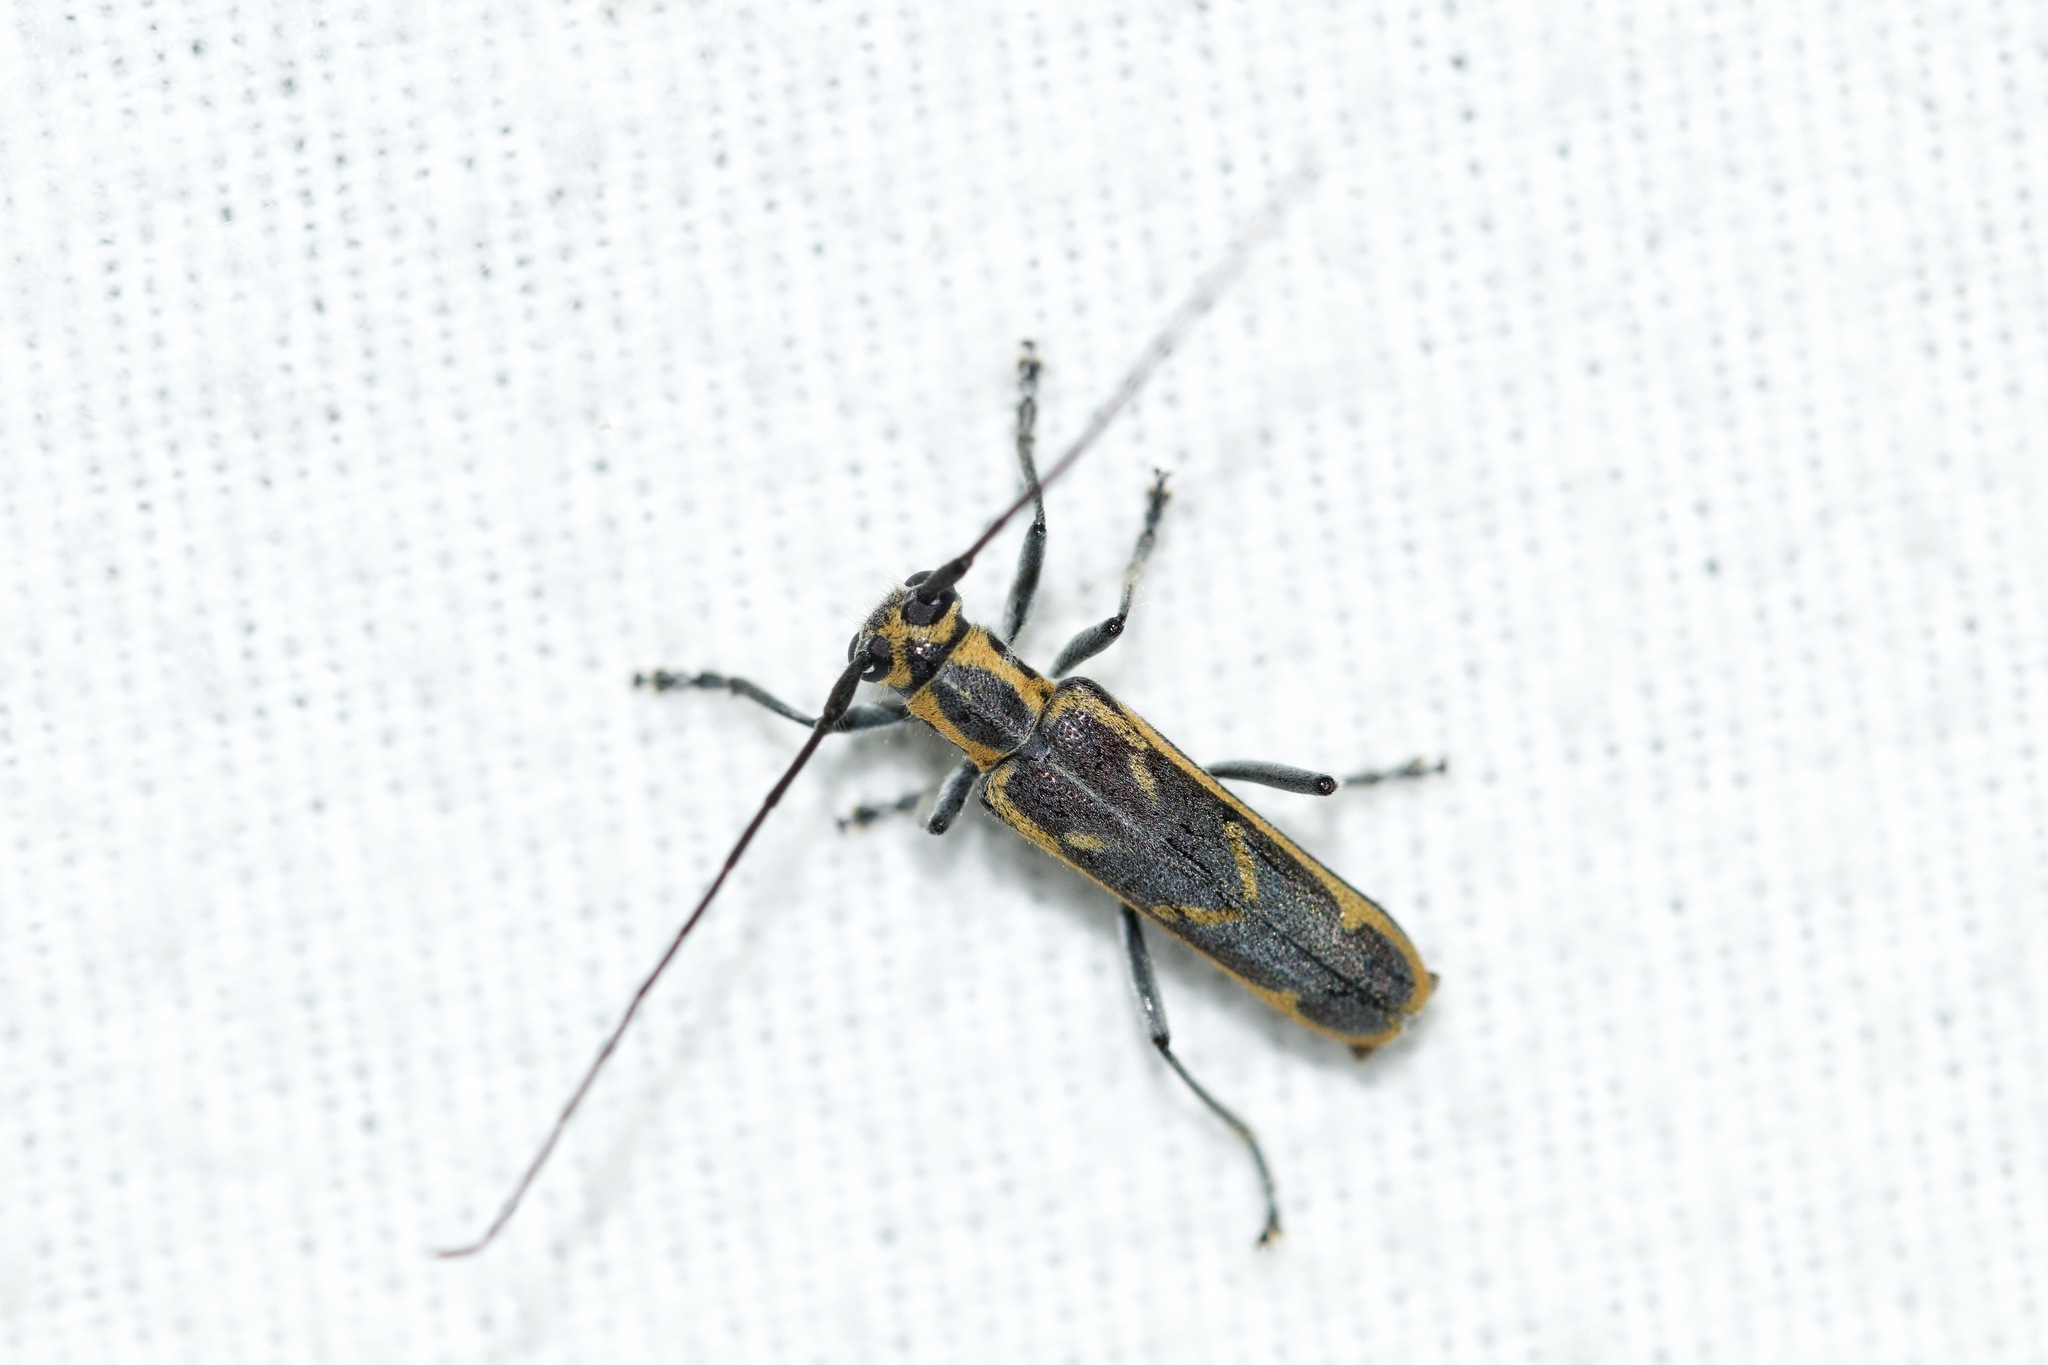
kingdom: Animalia
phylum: Arthropoda
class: Insecta
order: Coleoptera
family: Cerambycidae
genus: Saperda
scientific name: Saperda imitans
